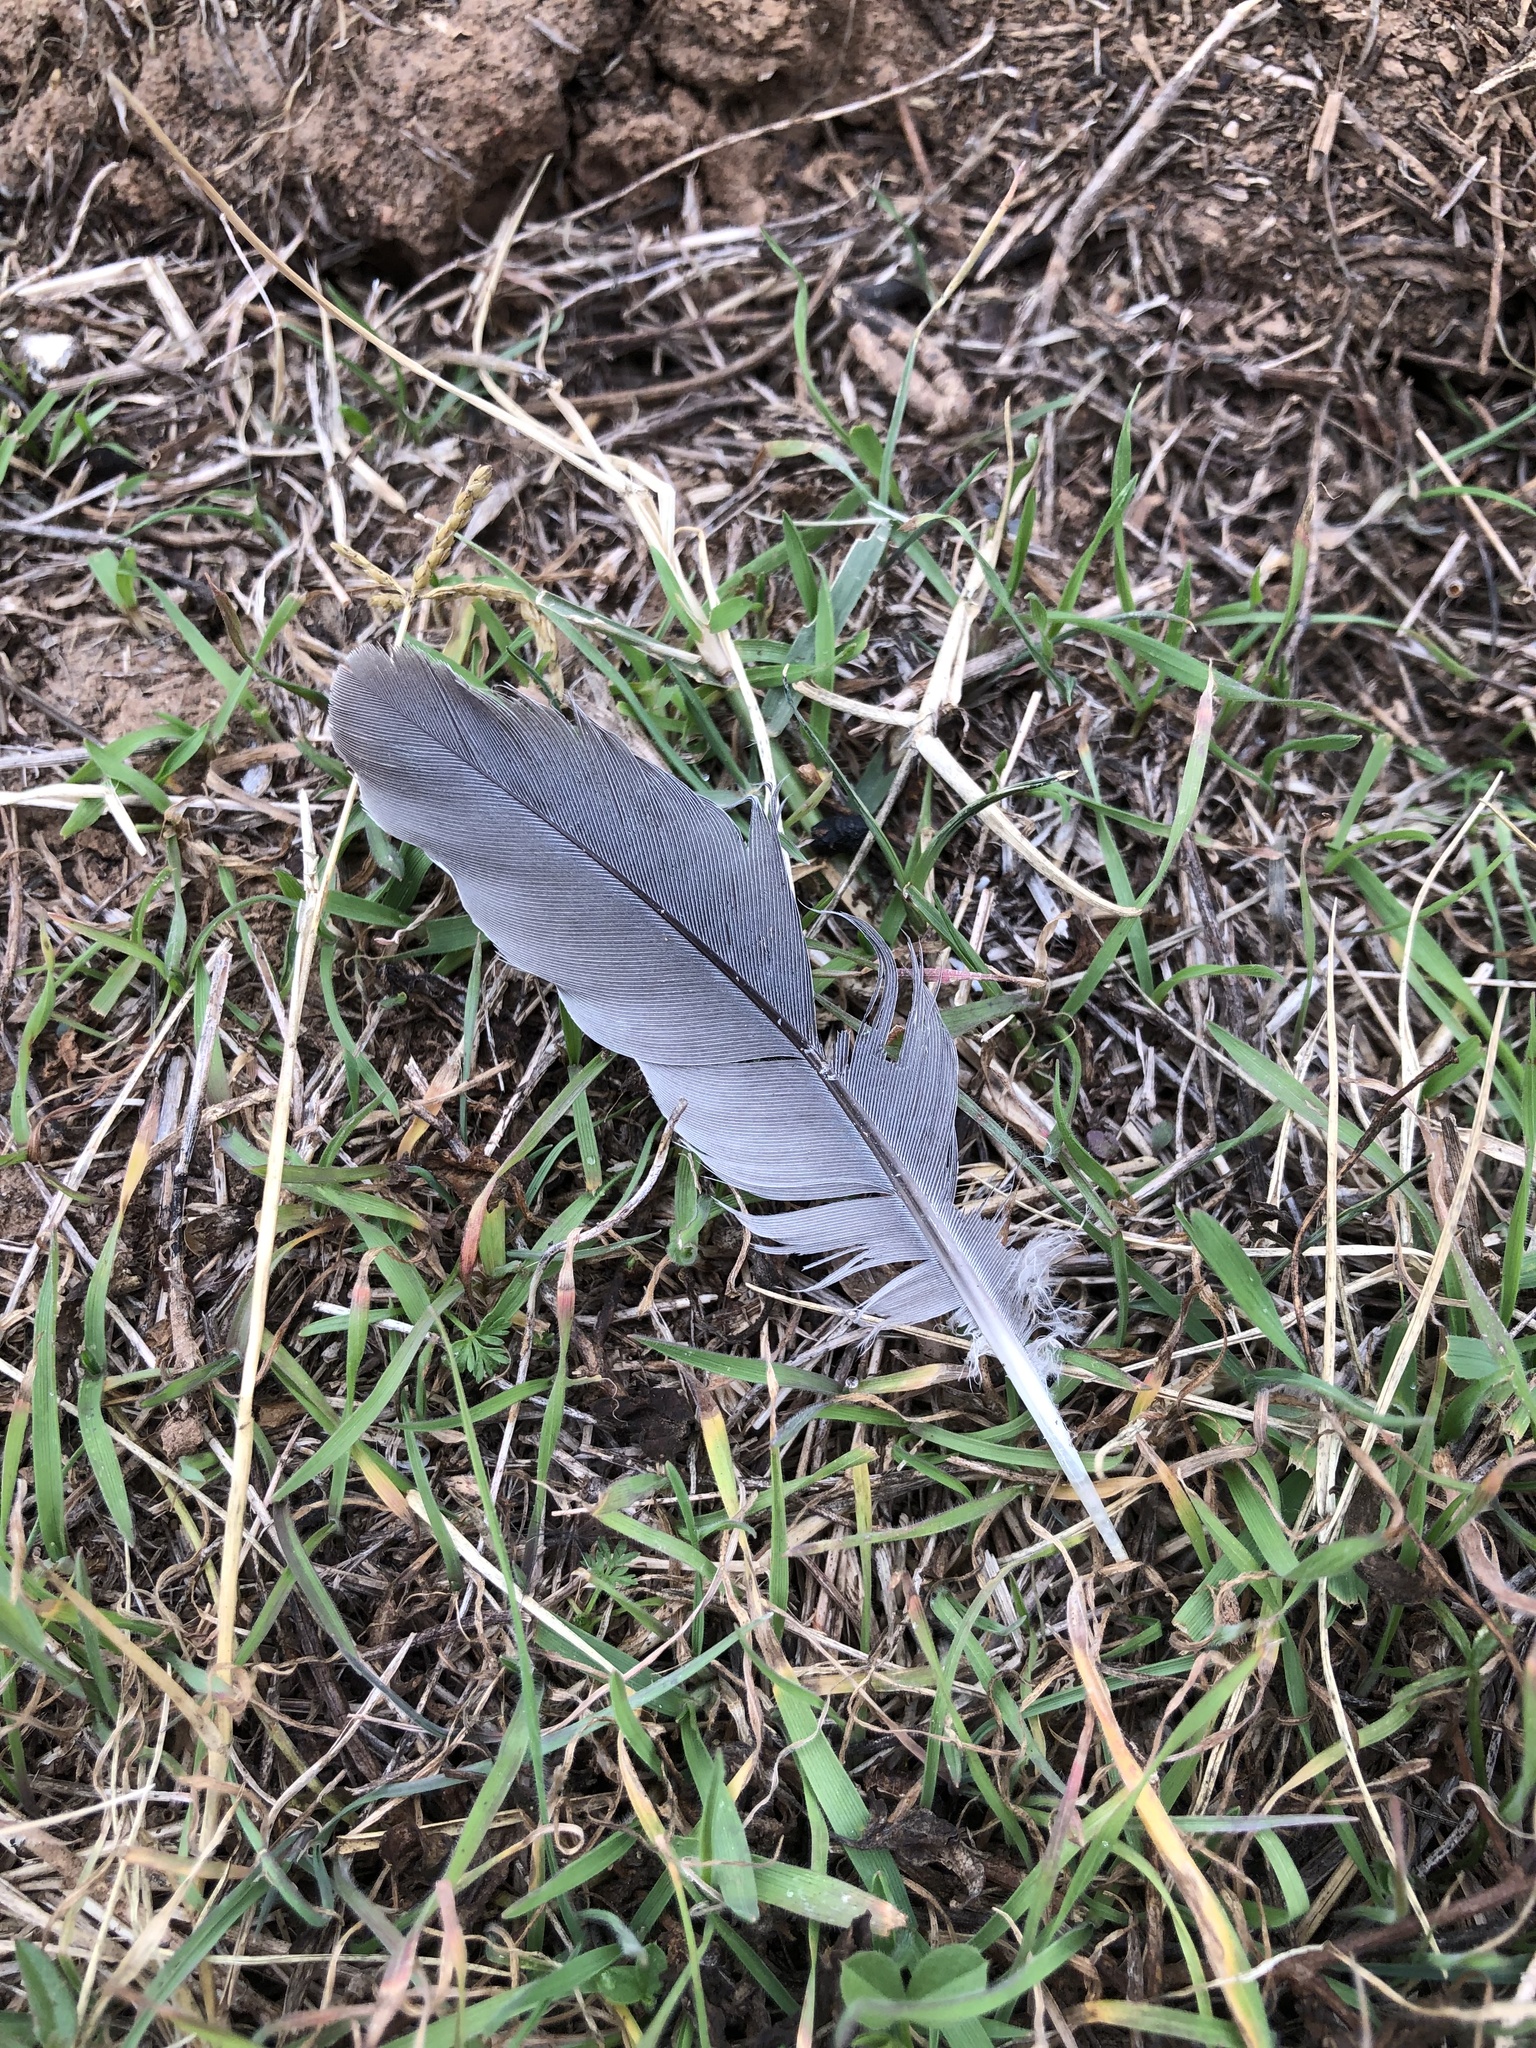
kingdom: Animalia
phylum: Chordata
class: Aves
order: Columbiformes
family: Columbidae
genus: Zenaida
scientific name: Zenaida macroura
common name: Mourning dove
